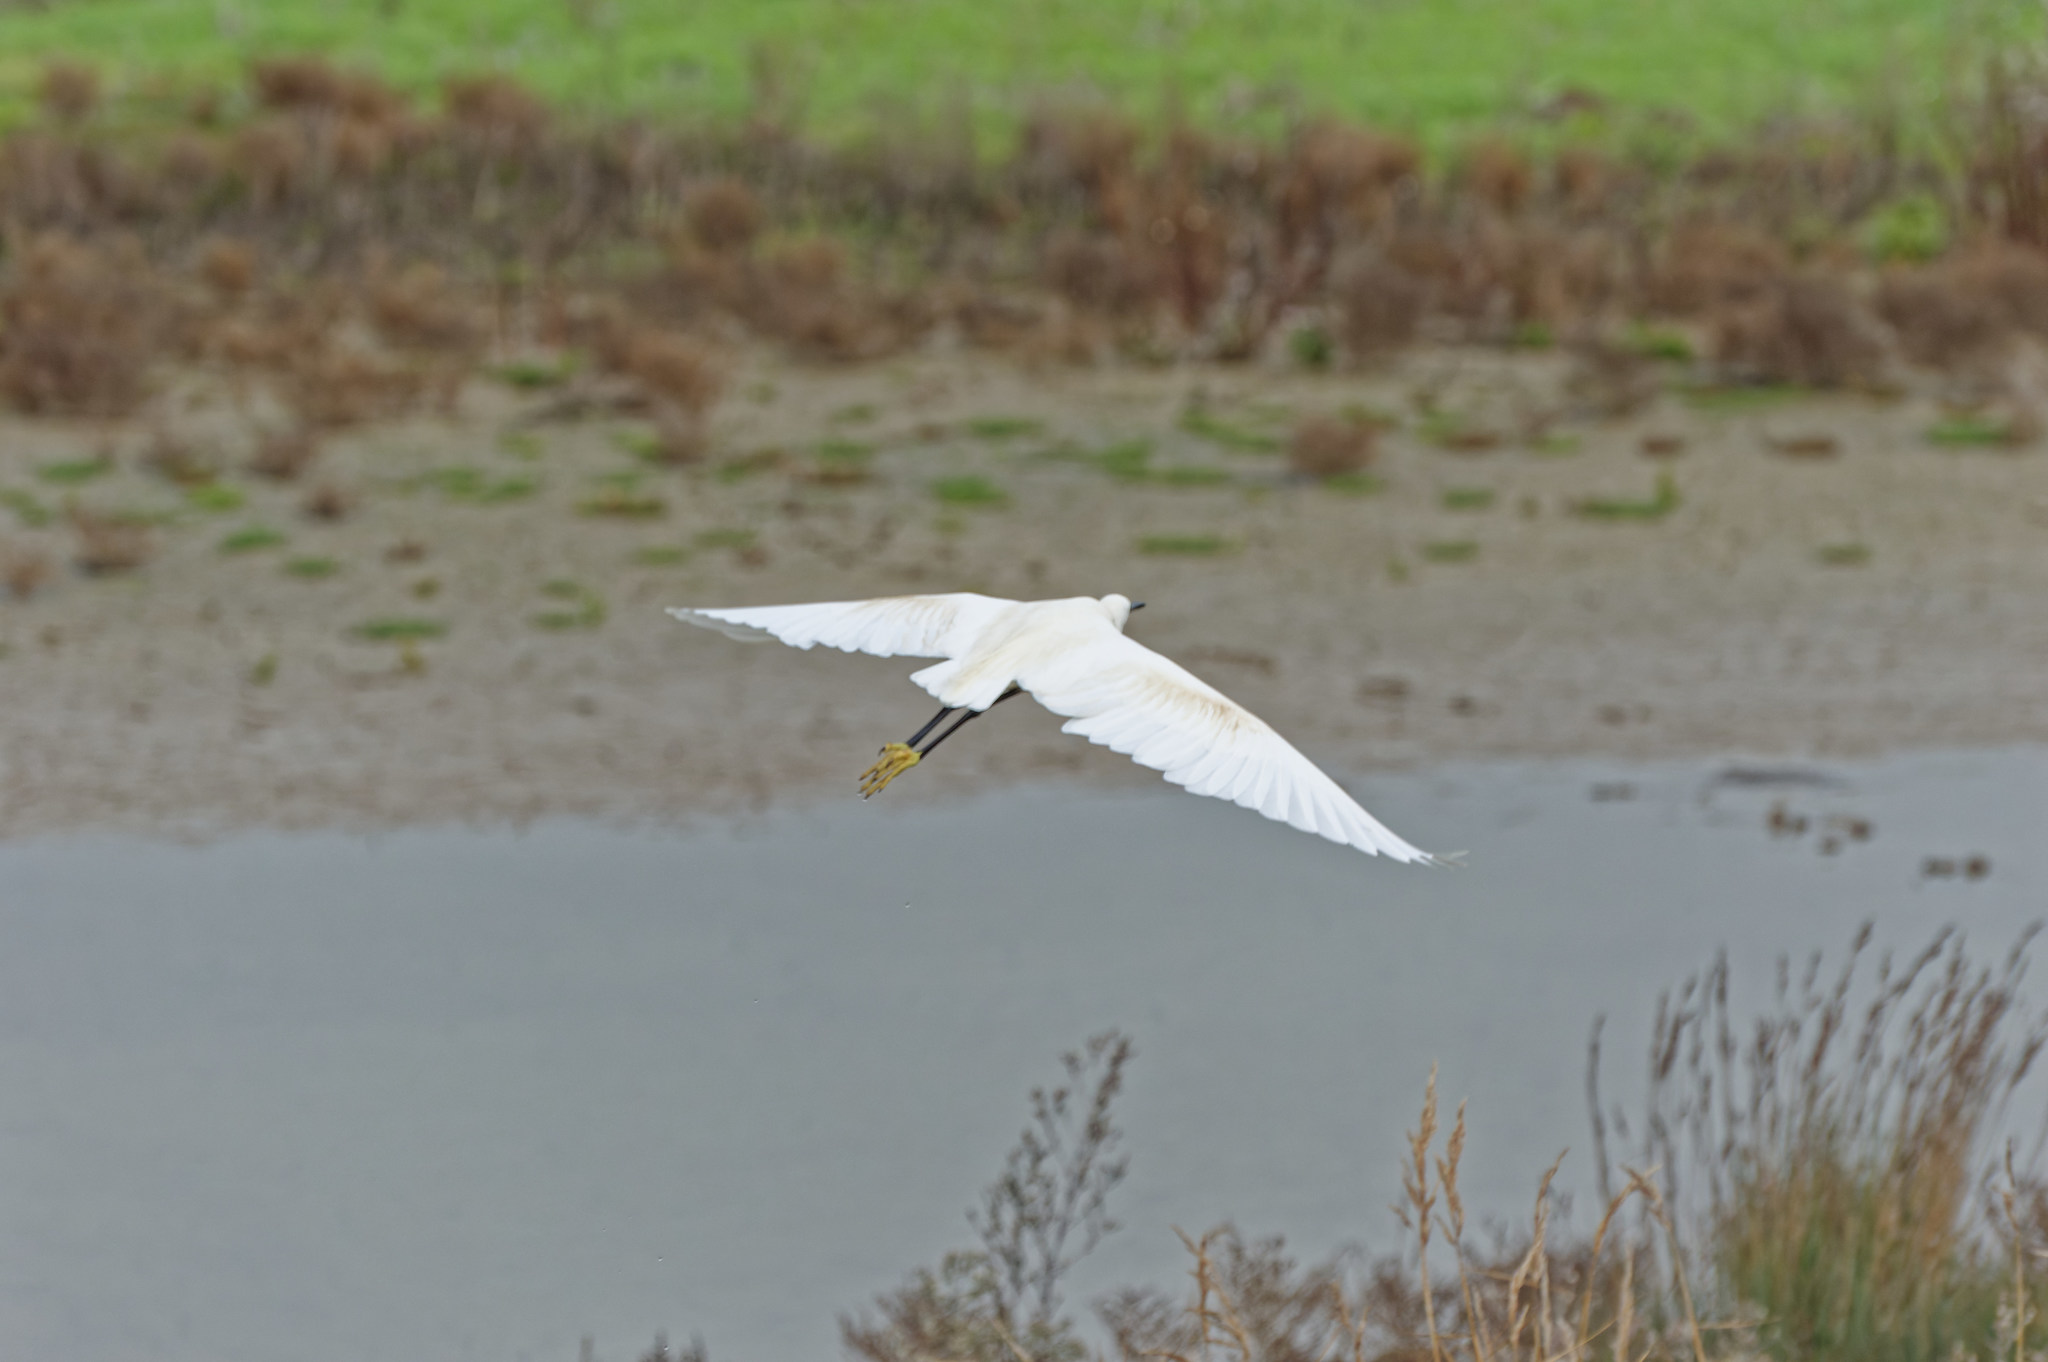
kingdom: Animalia
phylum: Chordata
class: Aves
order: Pelecaniformes
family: Ardeidae
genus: Egretta
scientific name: Egretta garzetta
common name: Little egret
